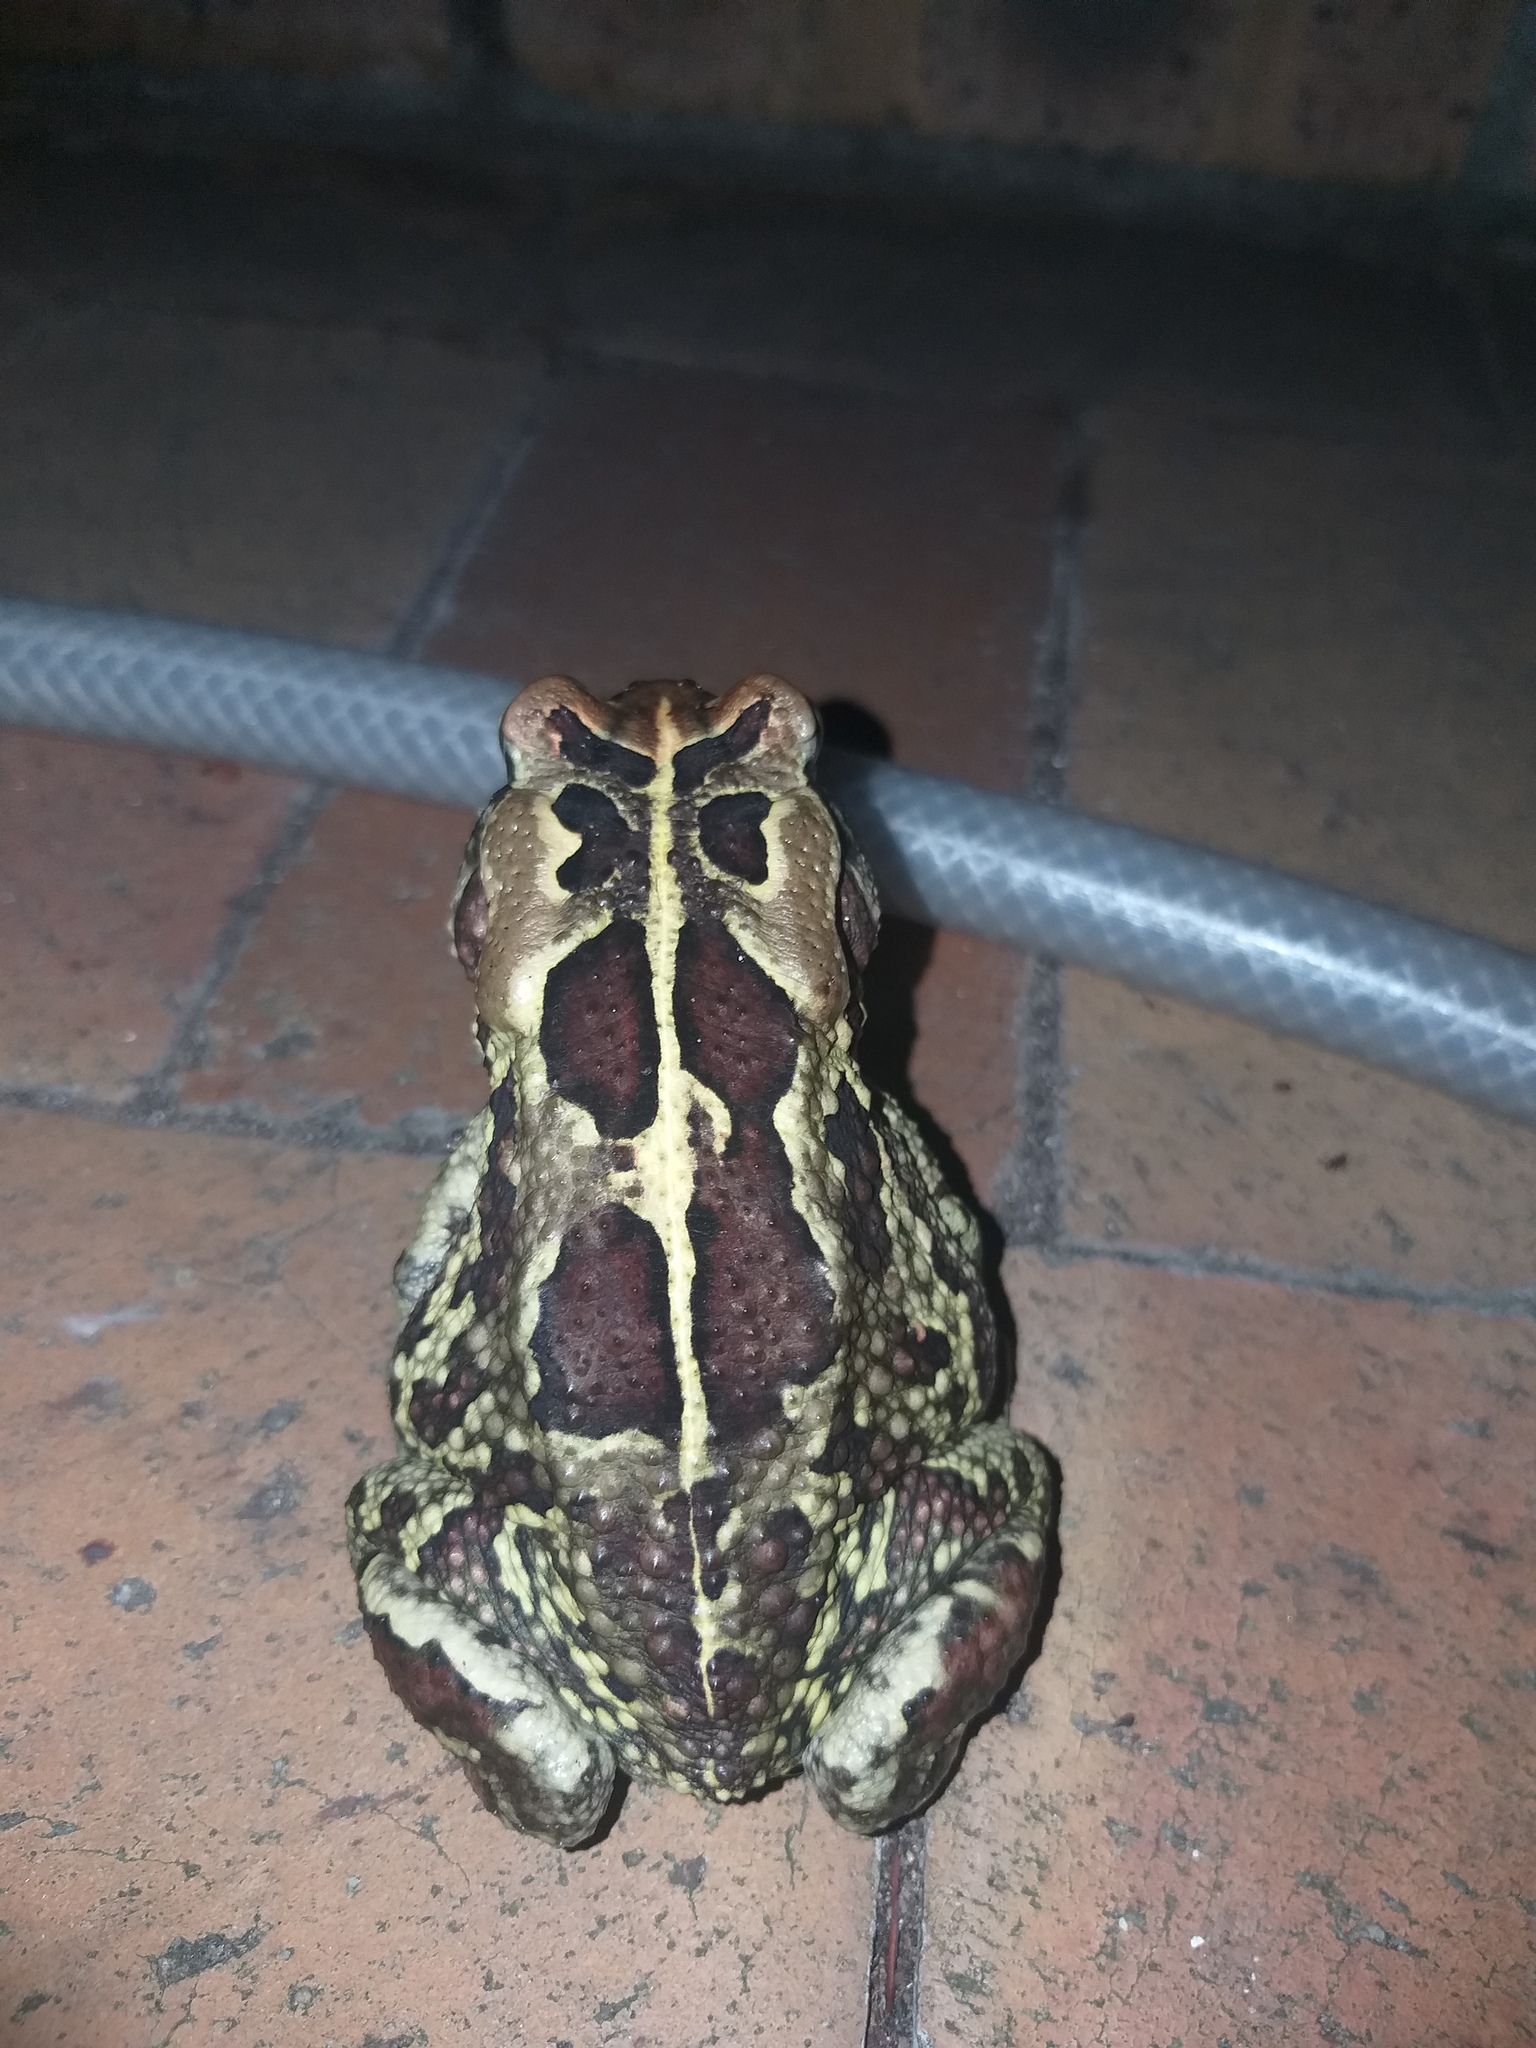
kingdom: Animalia
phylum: Chordata
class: Amphibia
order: Anura
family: Bufonidae
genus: Sclerophrys
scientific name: Sclerophrys pantherina
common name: Panther toad
